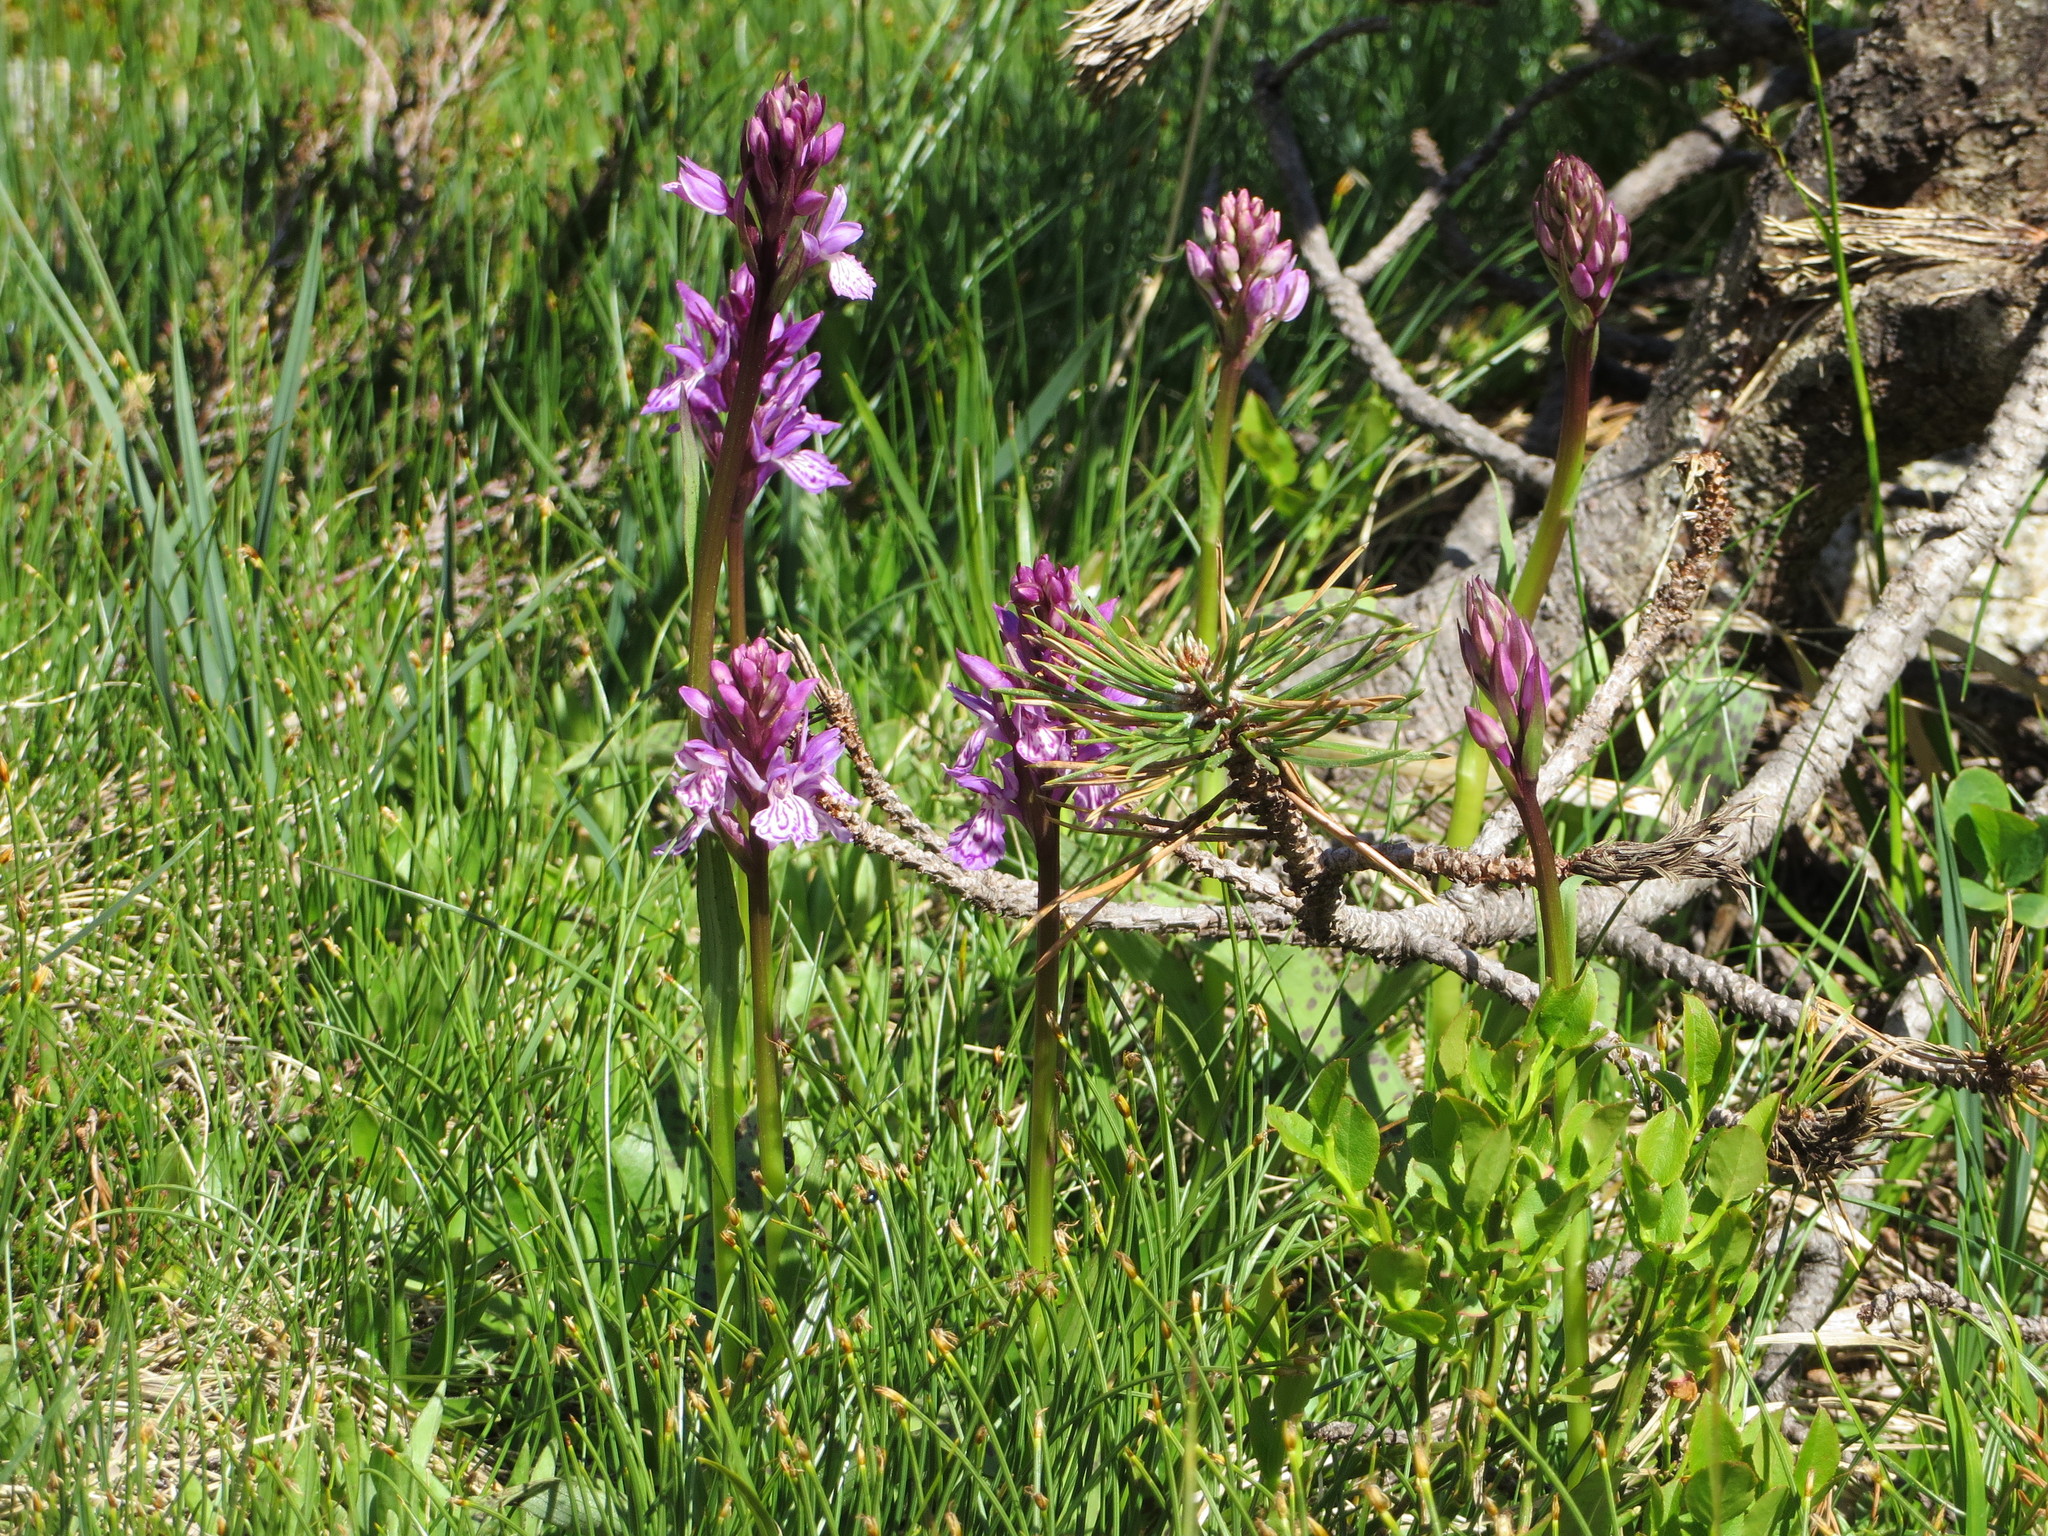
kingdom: Plantae
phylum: Tracheophyta
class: Liliopsida
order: Asparagales
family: Orchidaceae
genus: Dactylorhiza
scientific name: Dactylorhiza maculata
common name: Heath spotted-orchid
